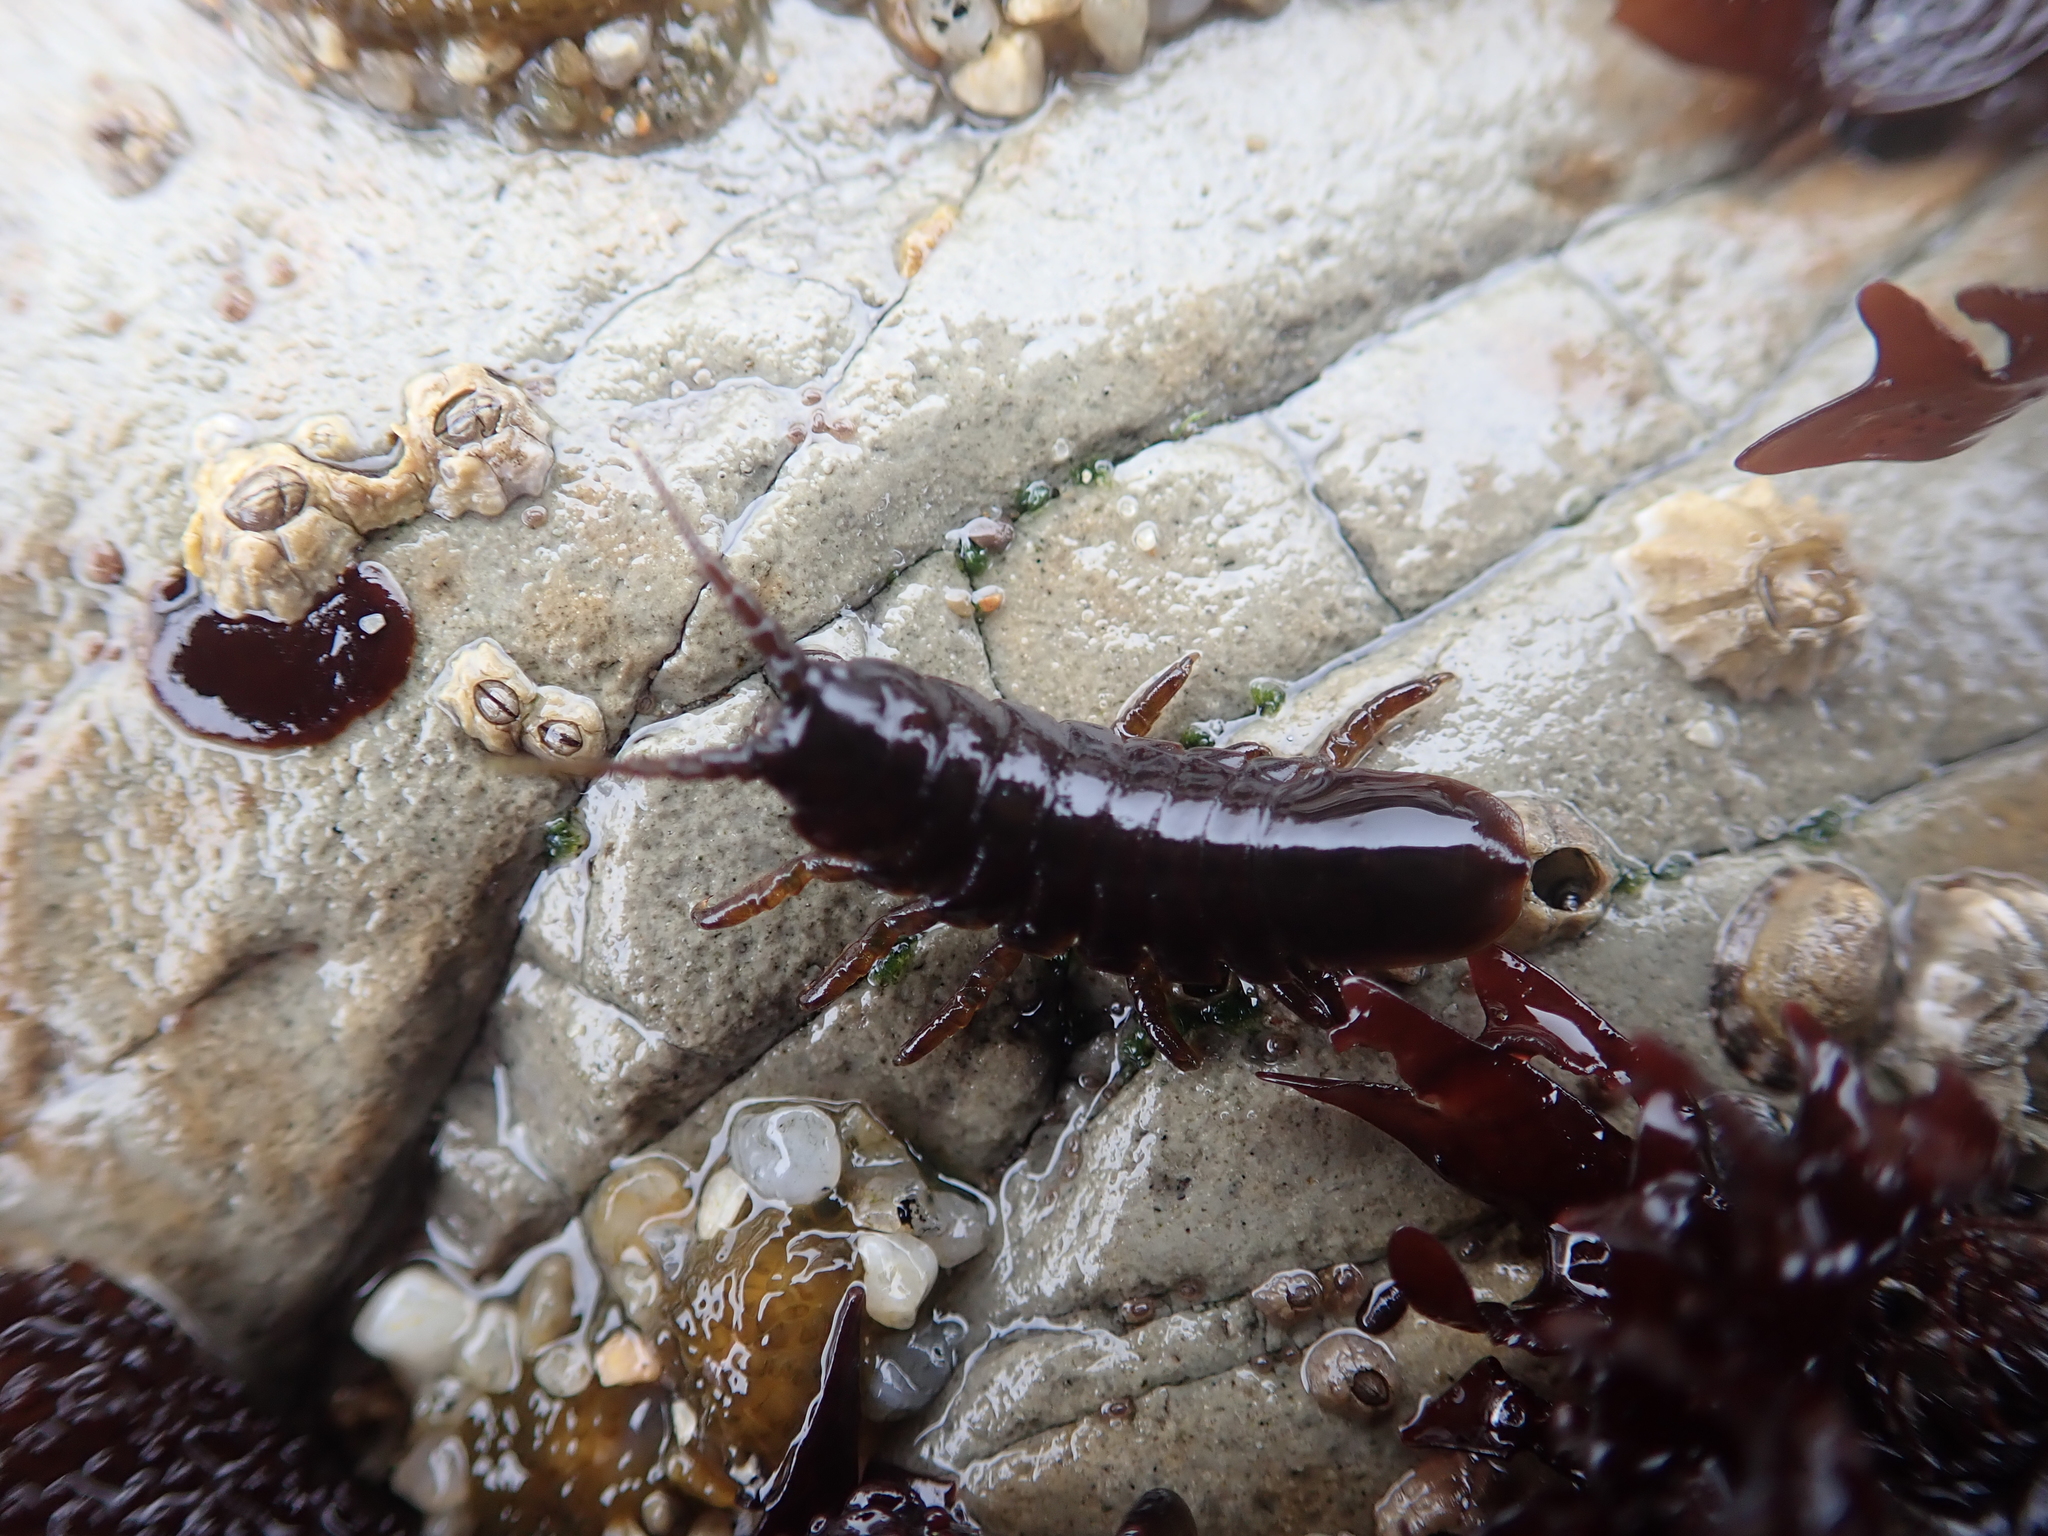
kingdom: Animalia
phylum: Arthropoda
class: Malacostraca
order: Isopoda
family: Idoteidae
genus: Pentidotea
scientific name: Pentidotea wosnesenskii
